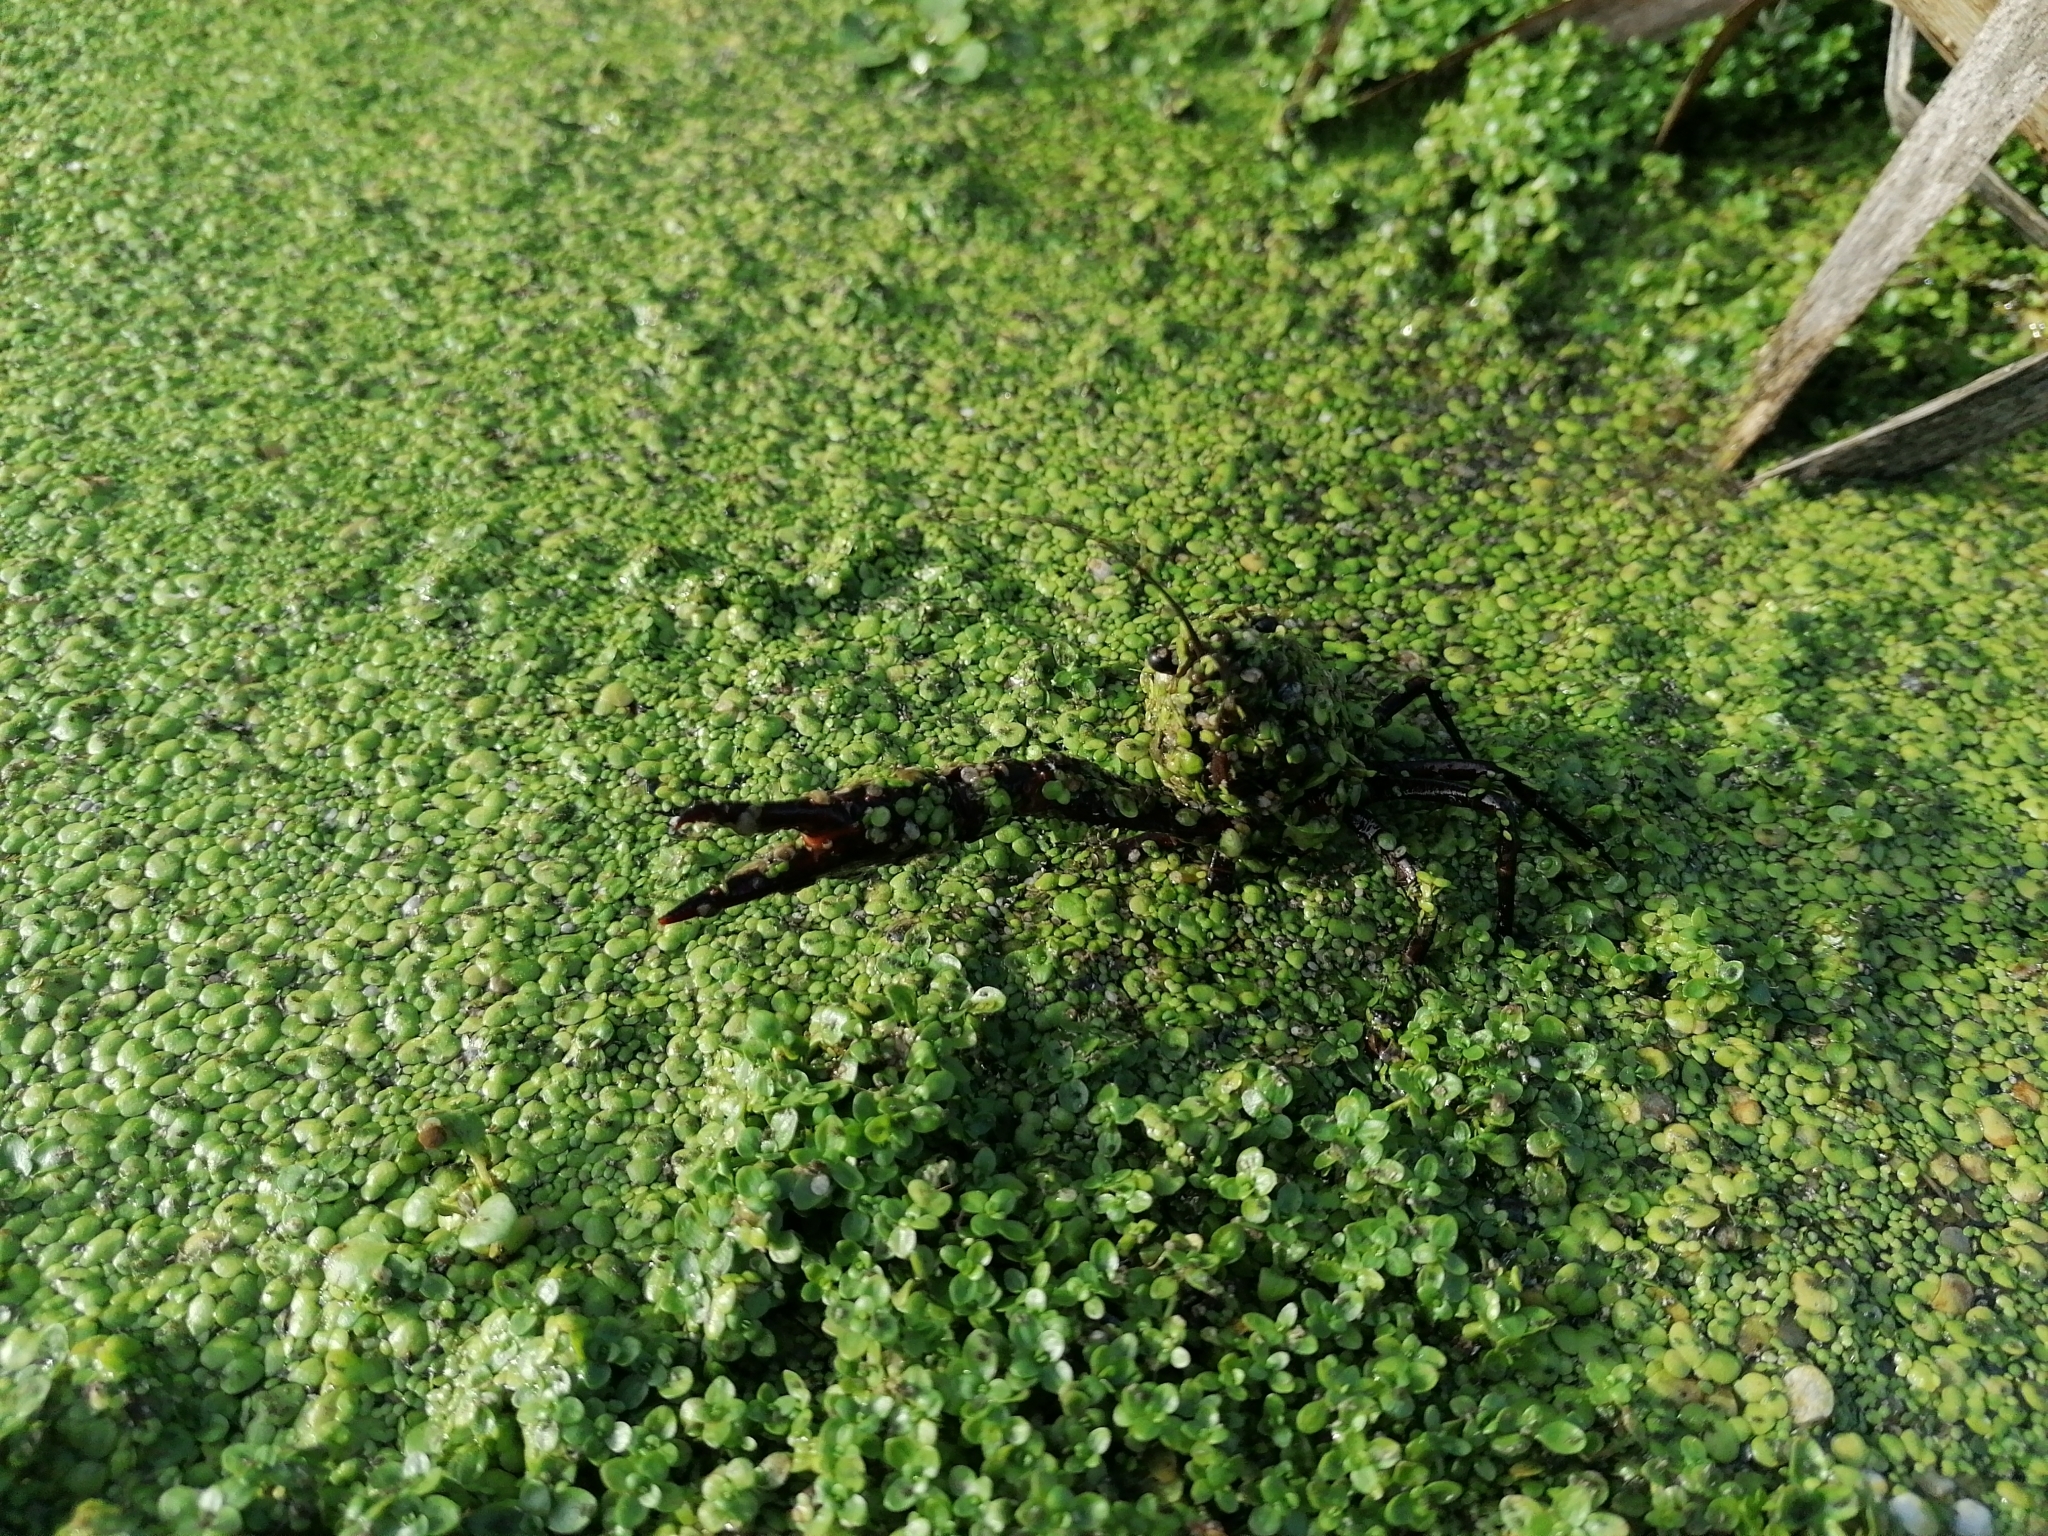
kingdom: Animalia
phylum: Arthropoda
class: Malacostraca
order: Decapoda
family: Cambaridae
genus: Procambarus
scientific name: Procambarus clarkii
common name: Red swamp crayfish
